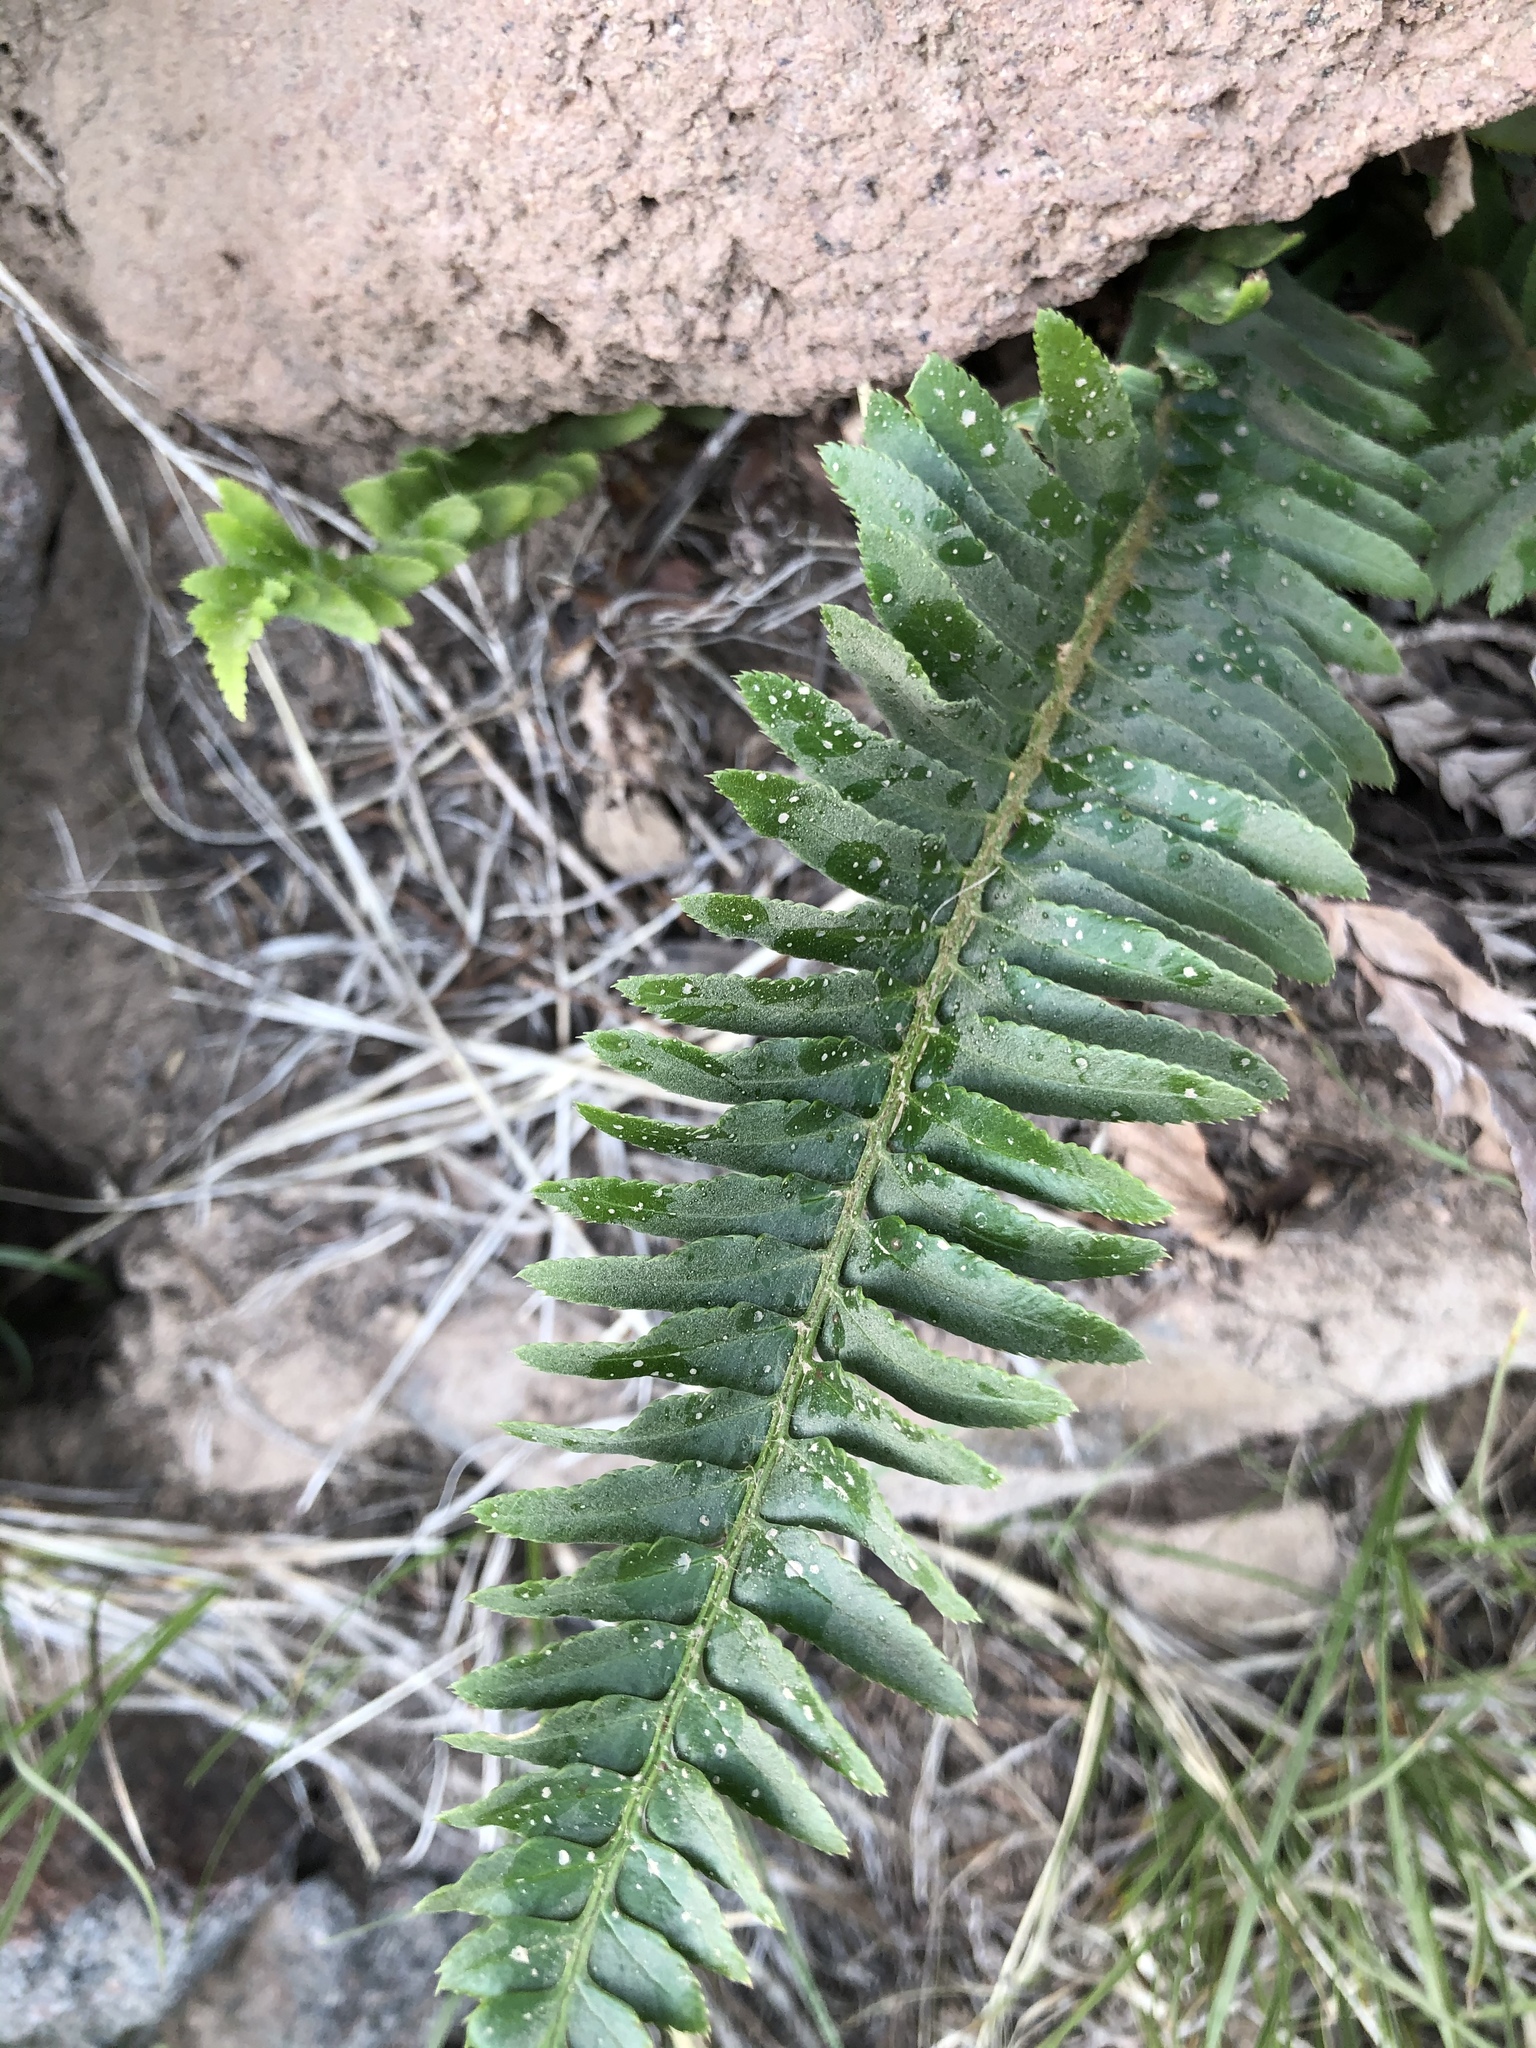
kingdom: Plantae
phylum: Tracheophyta
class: Polypodiopsida
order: Polypodiales
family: Dryopteridaceae
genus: Polystichum
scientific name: Polystichum munitum
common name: Western sword-fern
